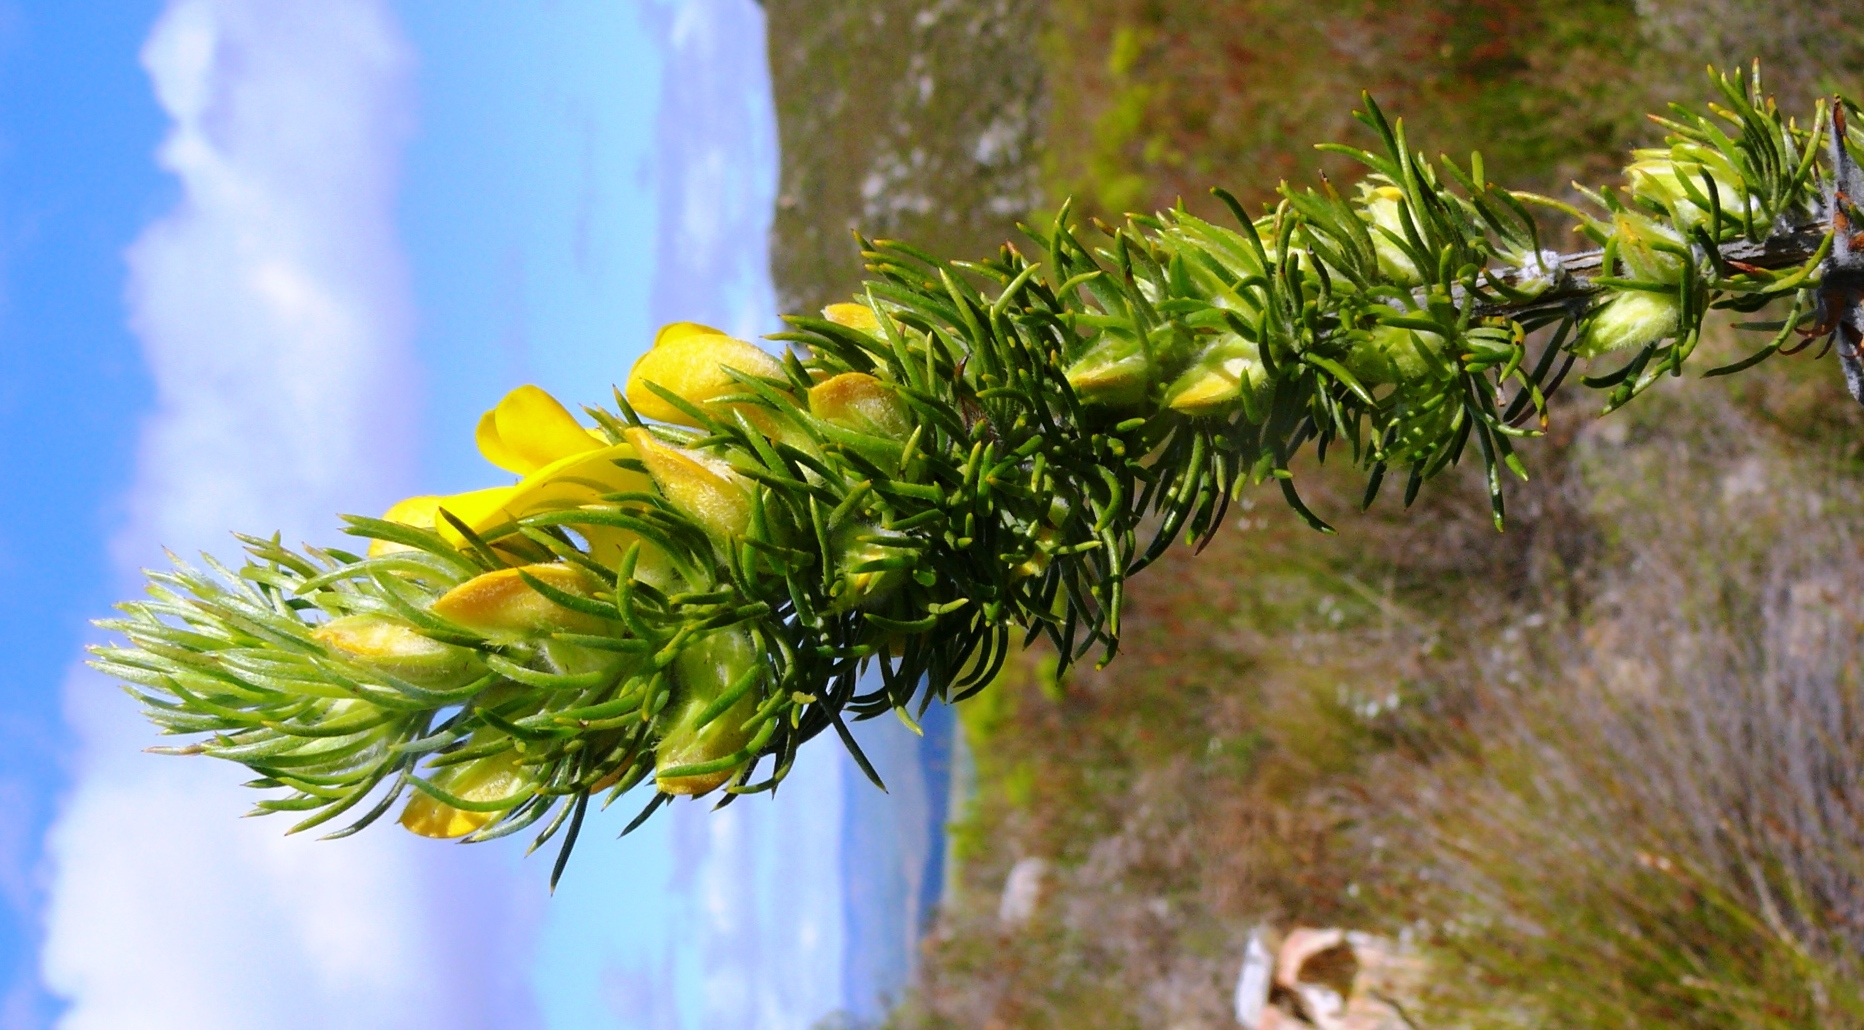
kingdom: Plantae
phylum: Tracheophyta
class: Magnoliopsida
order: Fabales
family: Fabaceae
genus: Aspalathus
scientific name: Aspalathus acanthes
